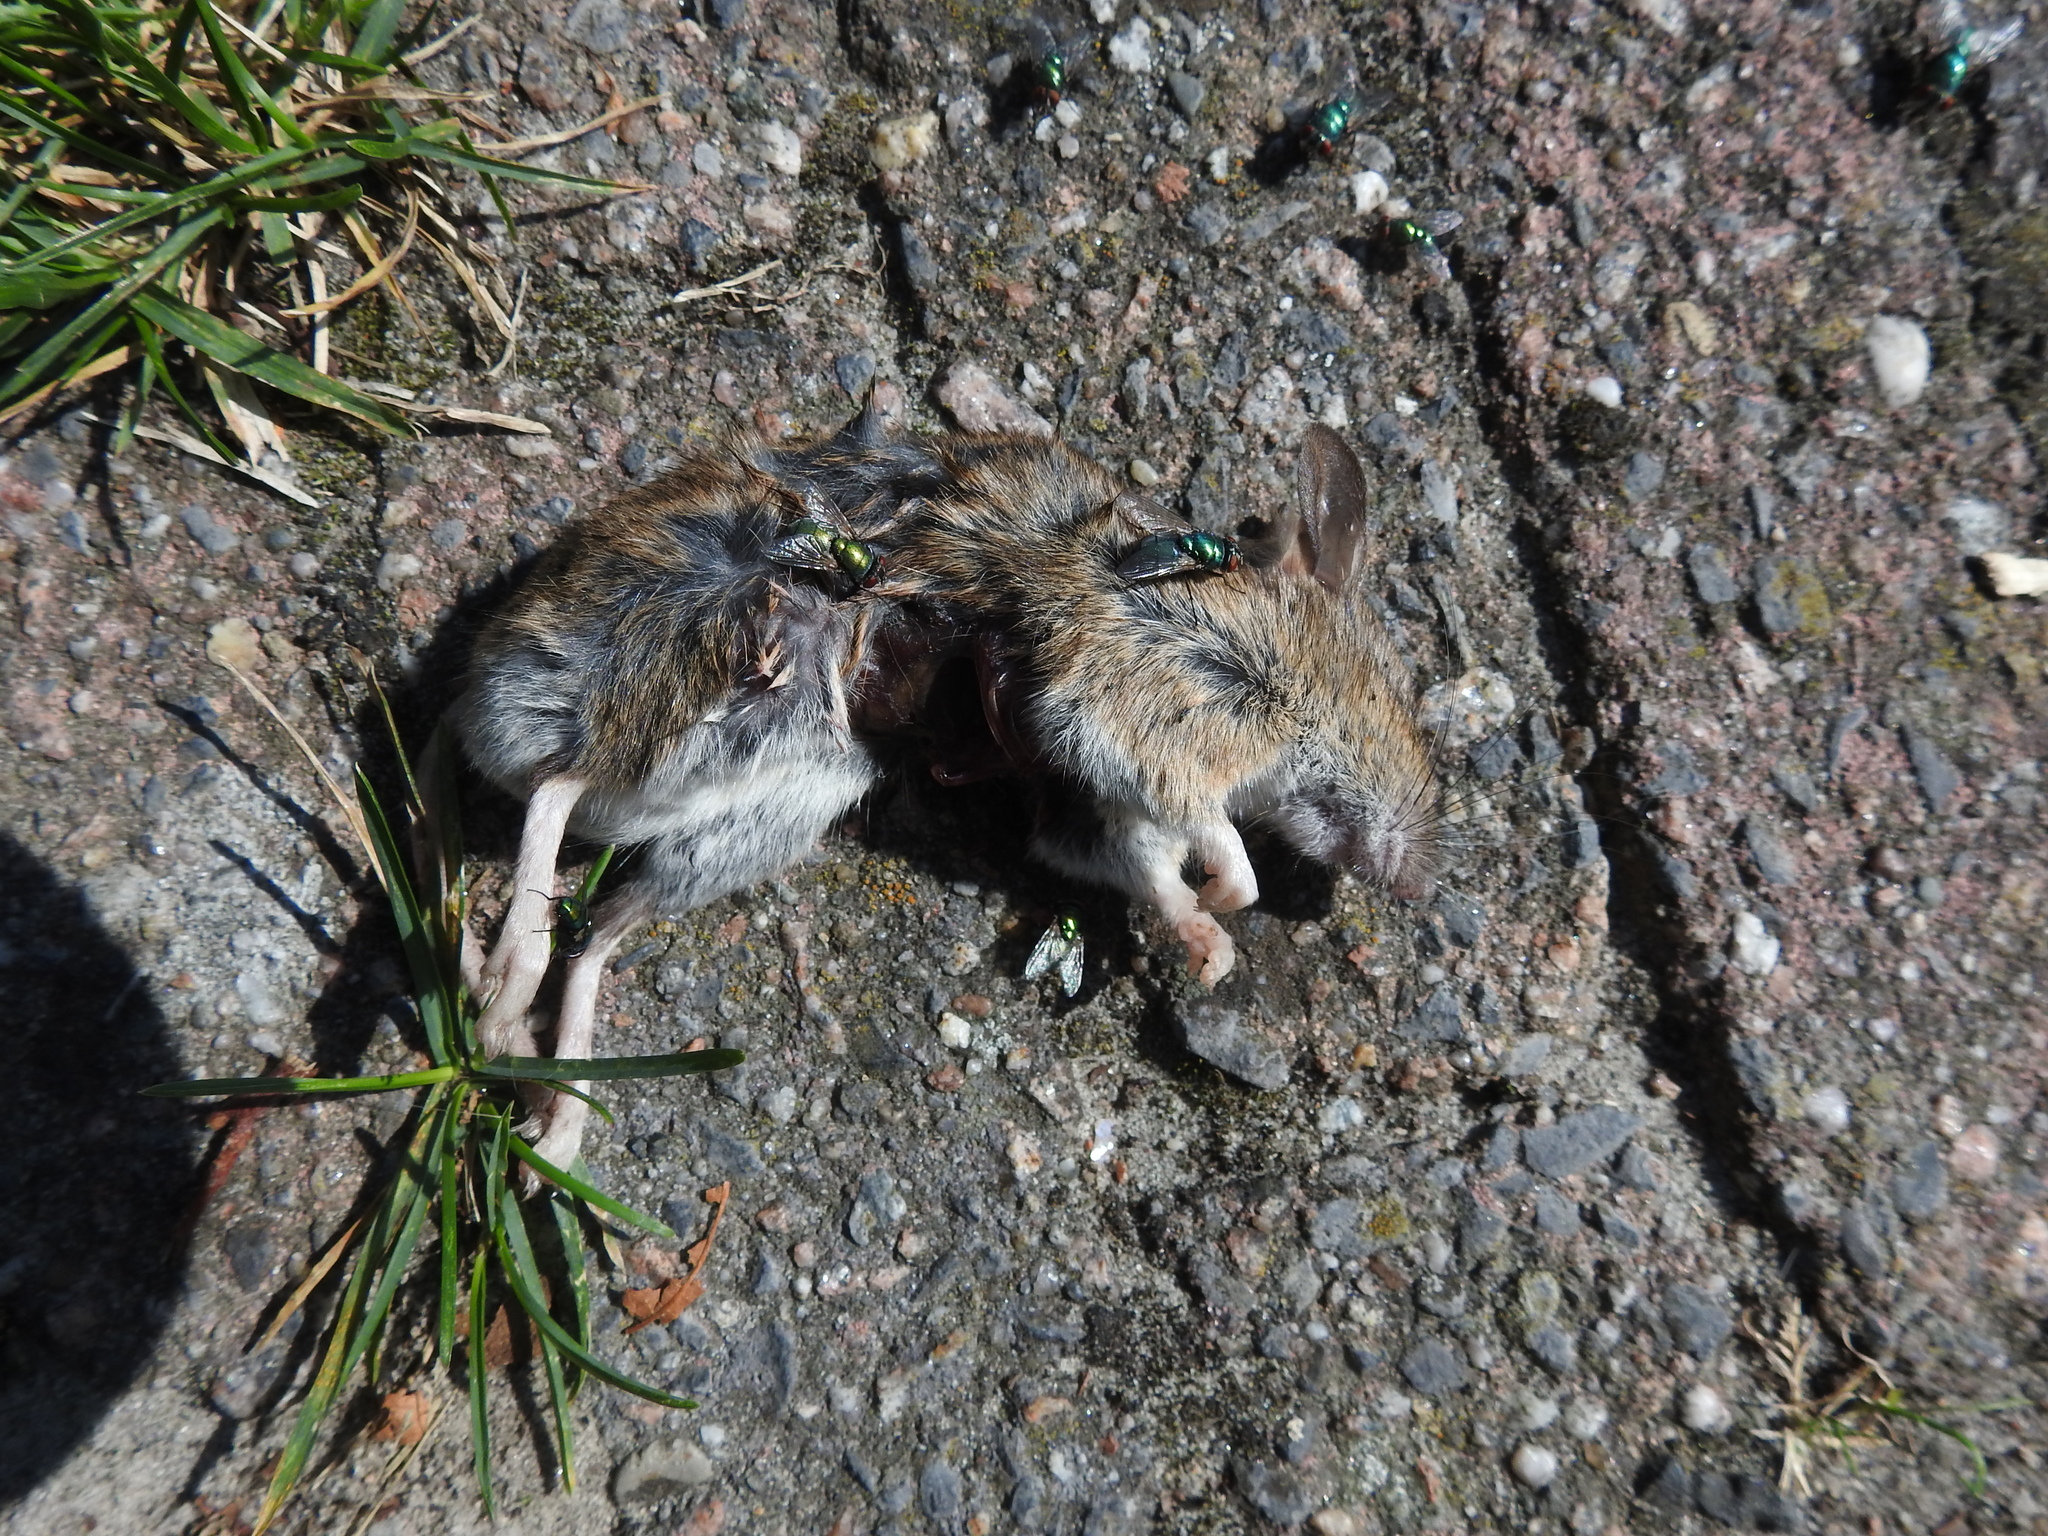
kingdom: Animalia
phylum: Chordata
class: Mammalia
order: Rodentia
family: Muridae
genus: Apodemus
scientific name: Apodemus sylvaticus
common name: Wood mouse
